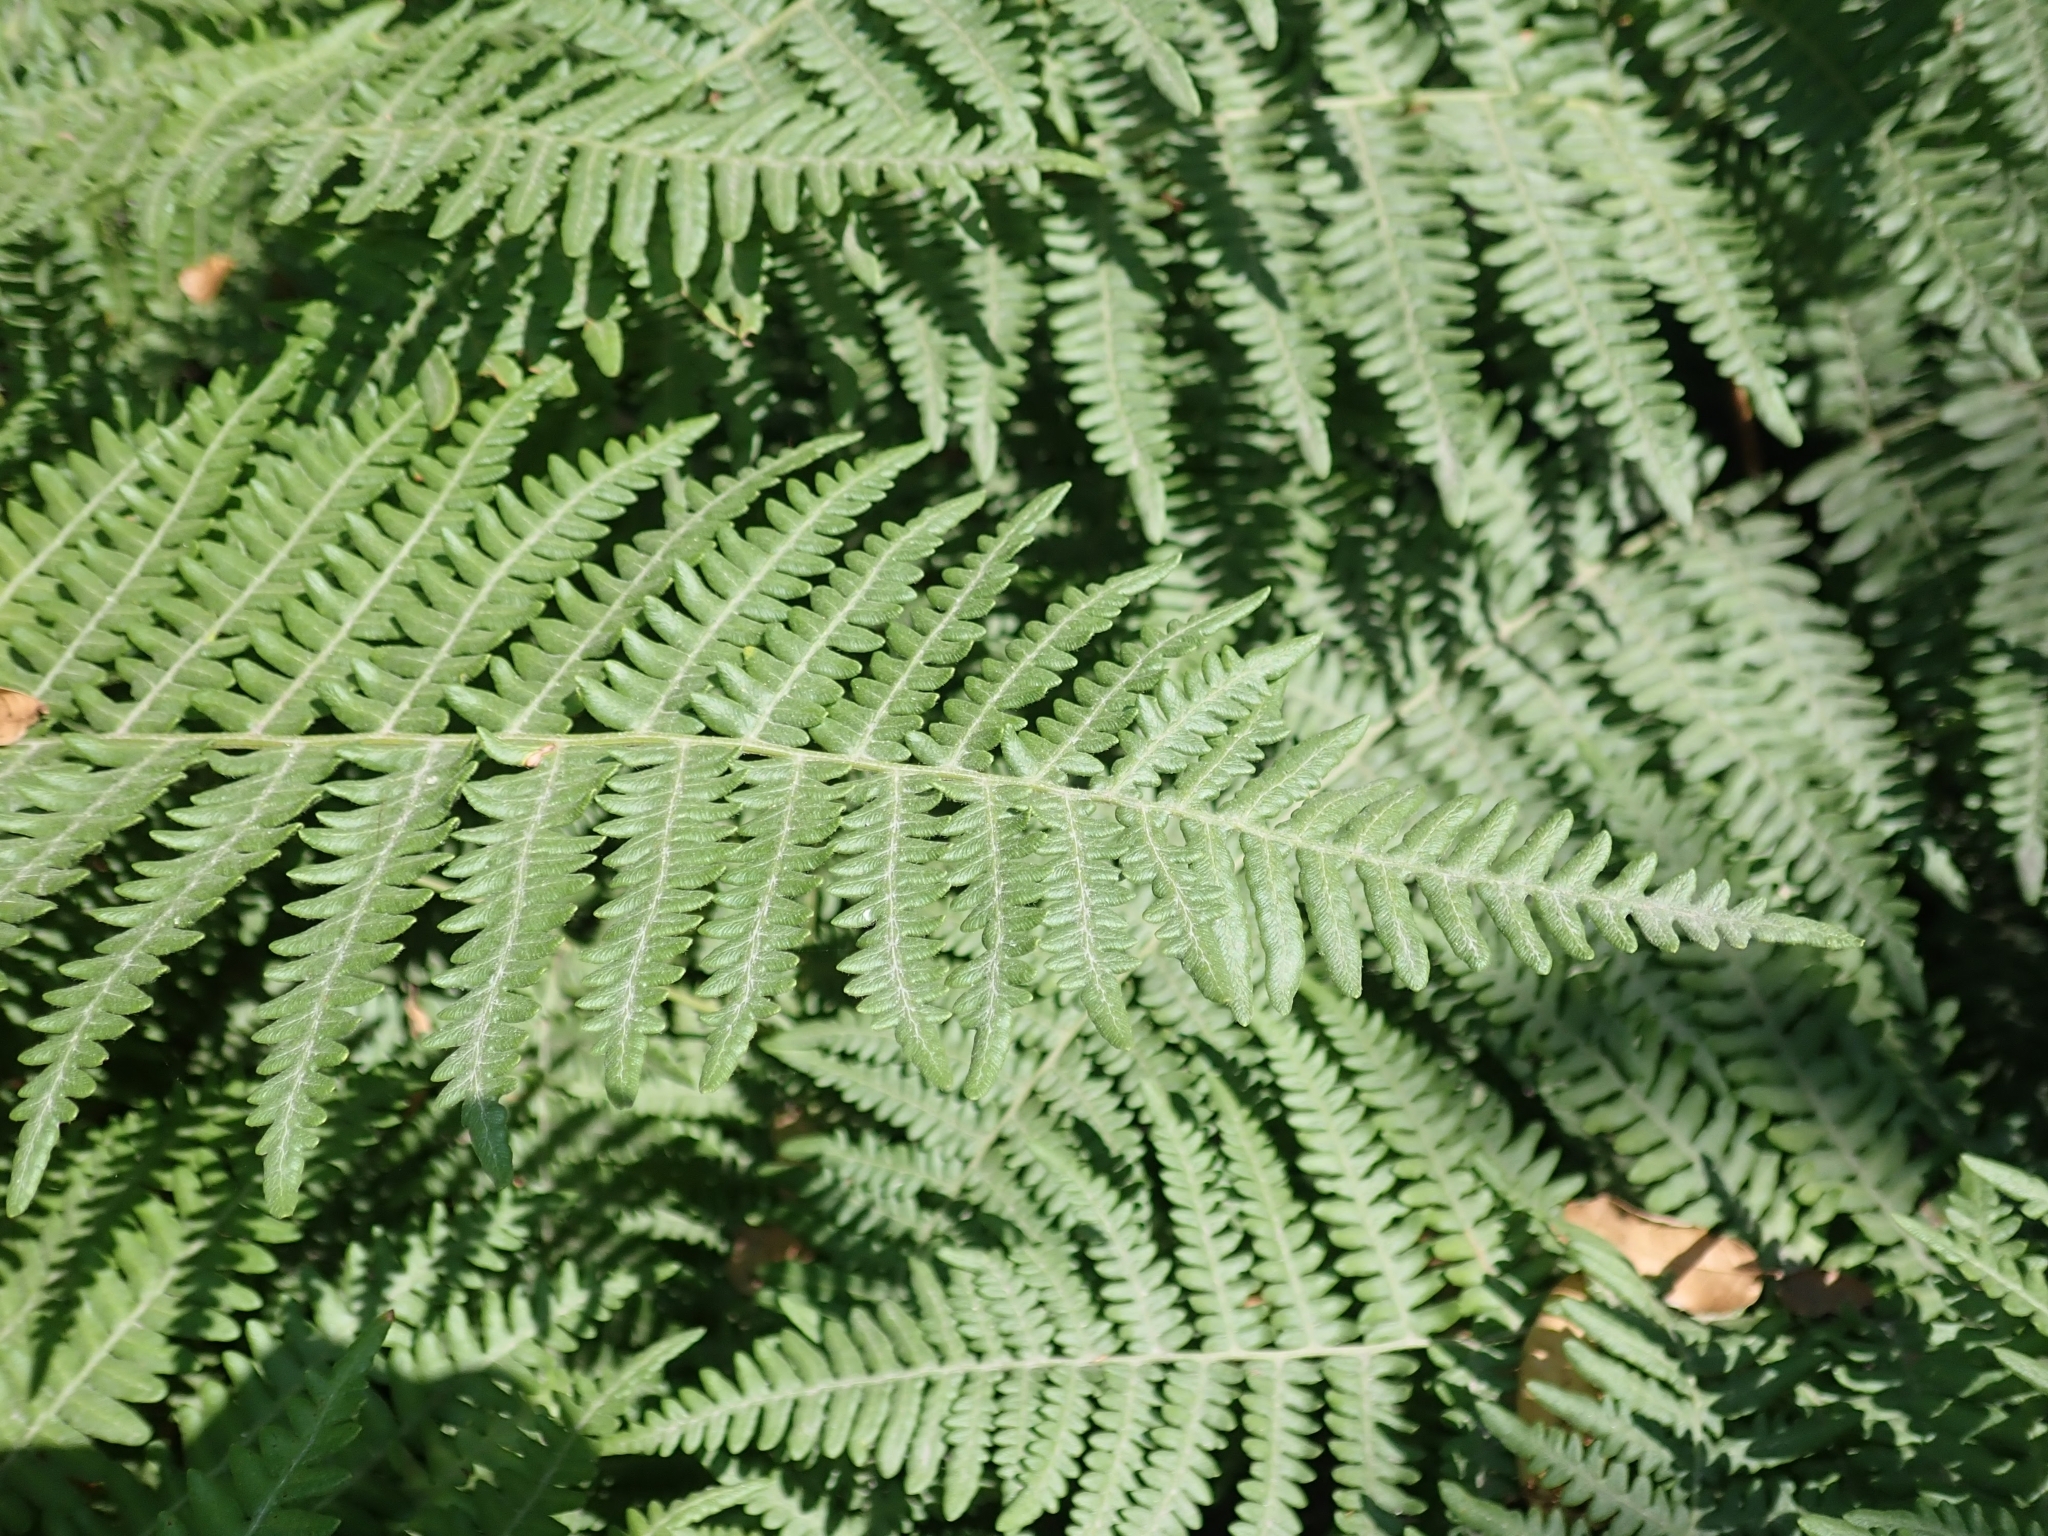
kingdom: Plantae
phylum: Tracheophyta
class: Polypodiopsida
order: Polypodiales
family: Dennstaedtiaceae
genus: Pteridium
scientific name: Pteridium aquilinum
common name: Bracken
